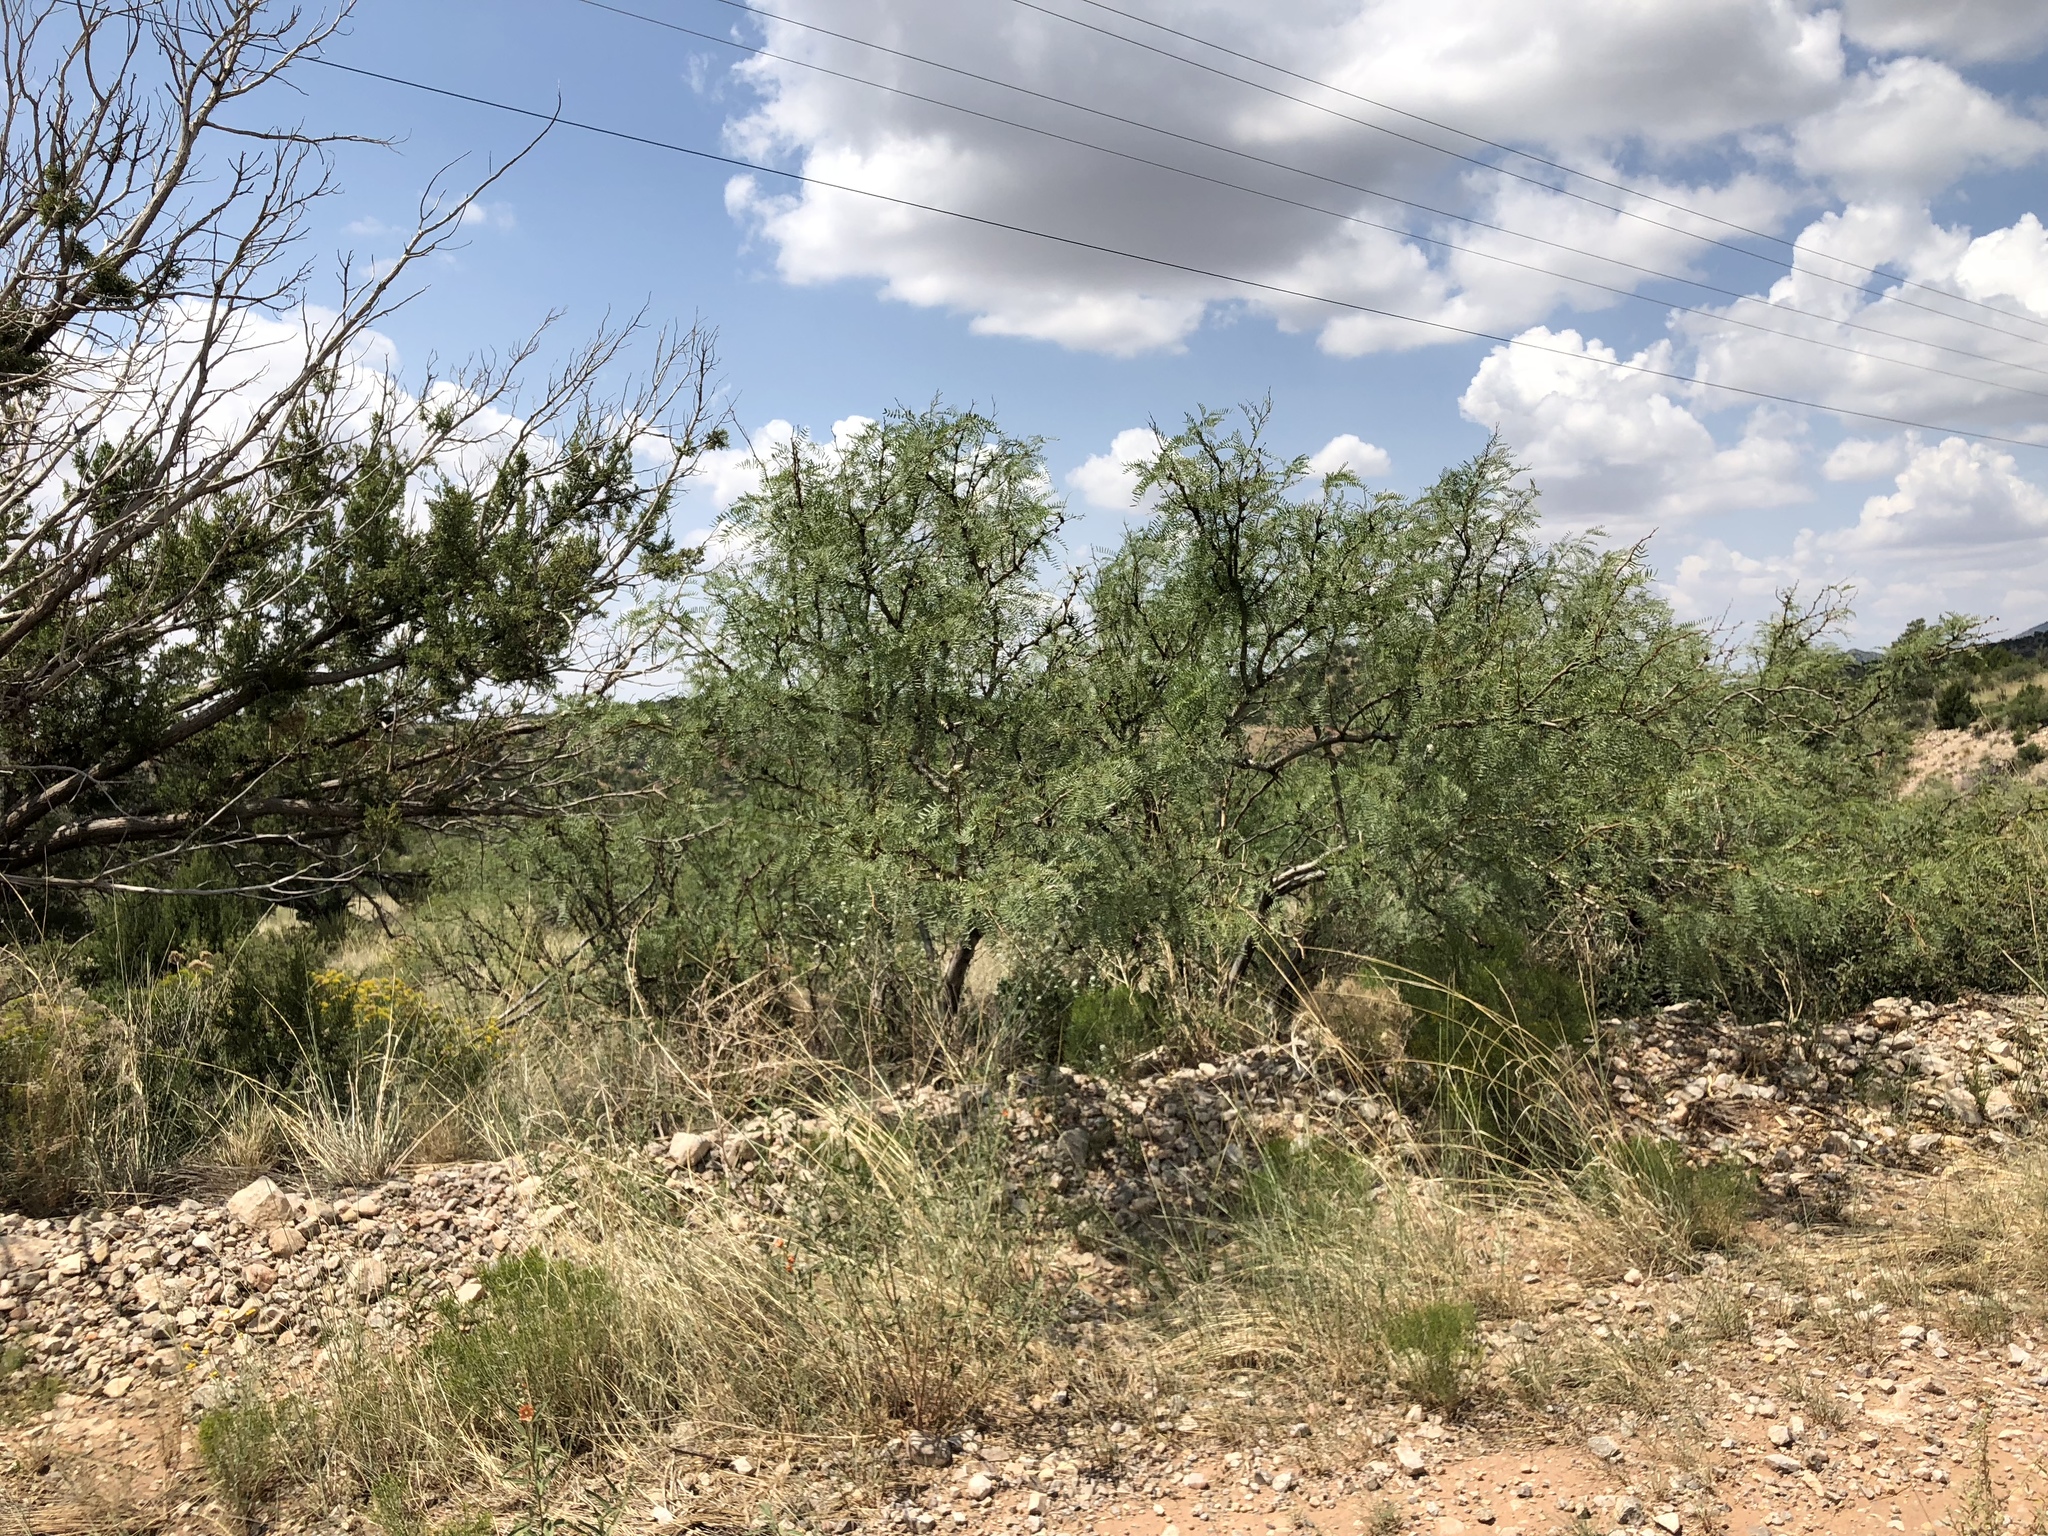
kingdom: Plantae
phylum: Tracheophyta
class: Magnoliopsida
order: Fabales
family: Fabaceae
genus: Prosopis
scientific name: Prosopis glandulosa
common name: Honey mesquite
